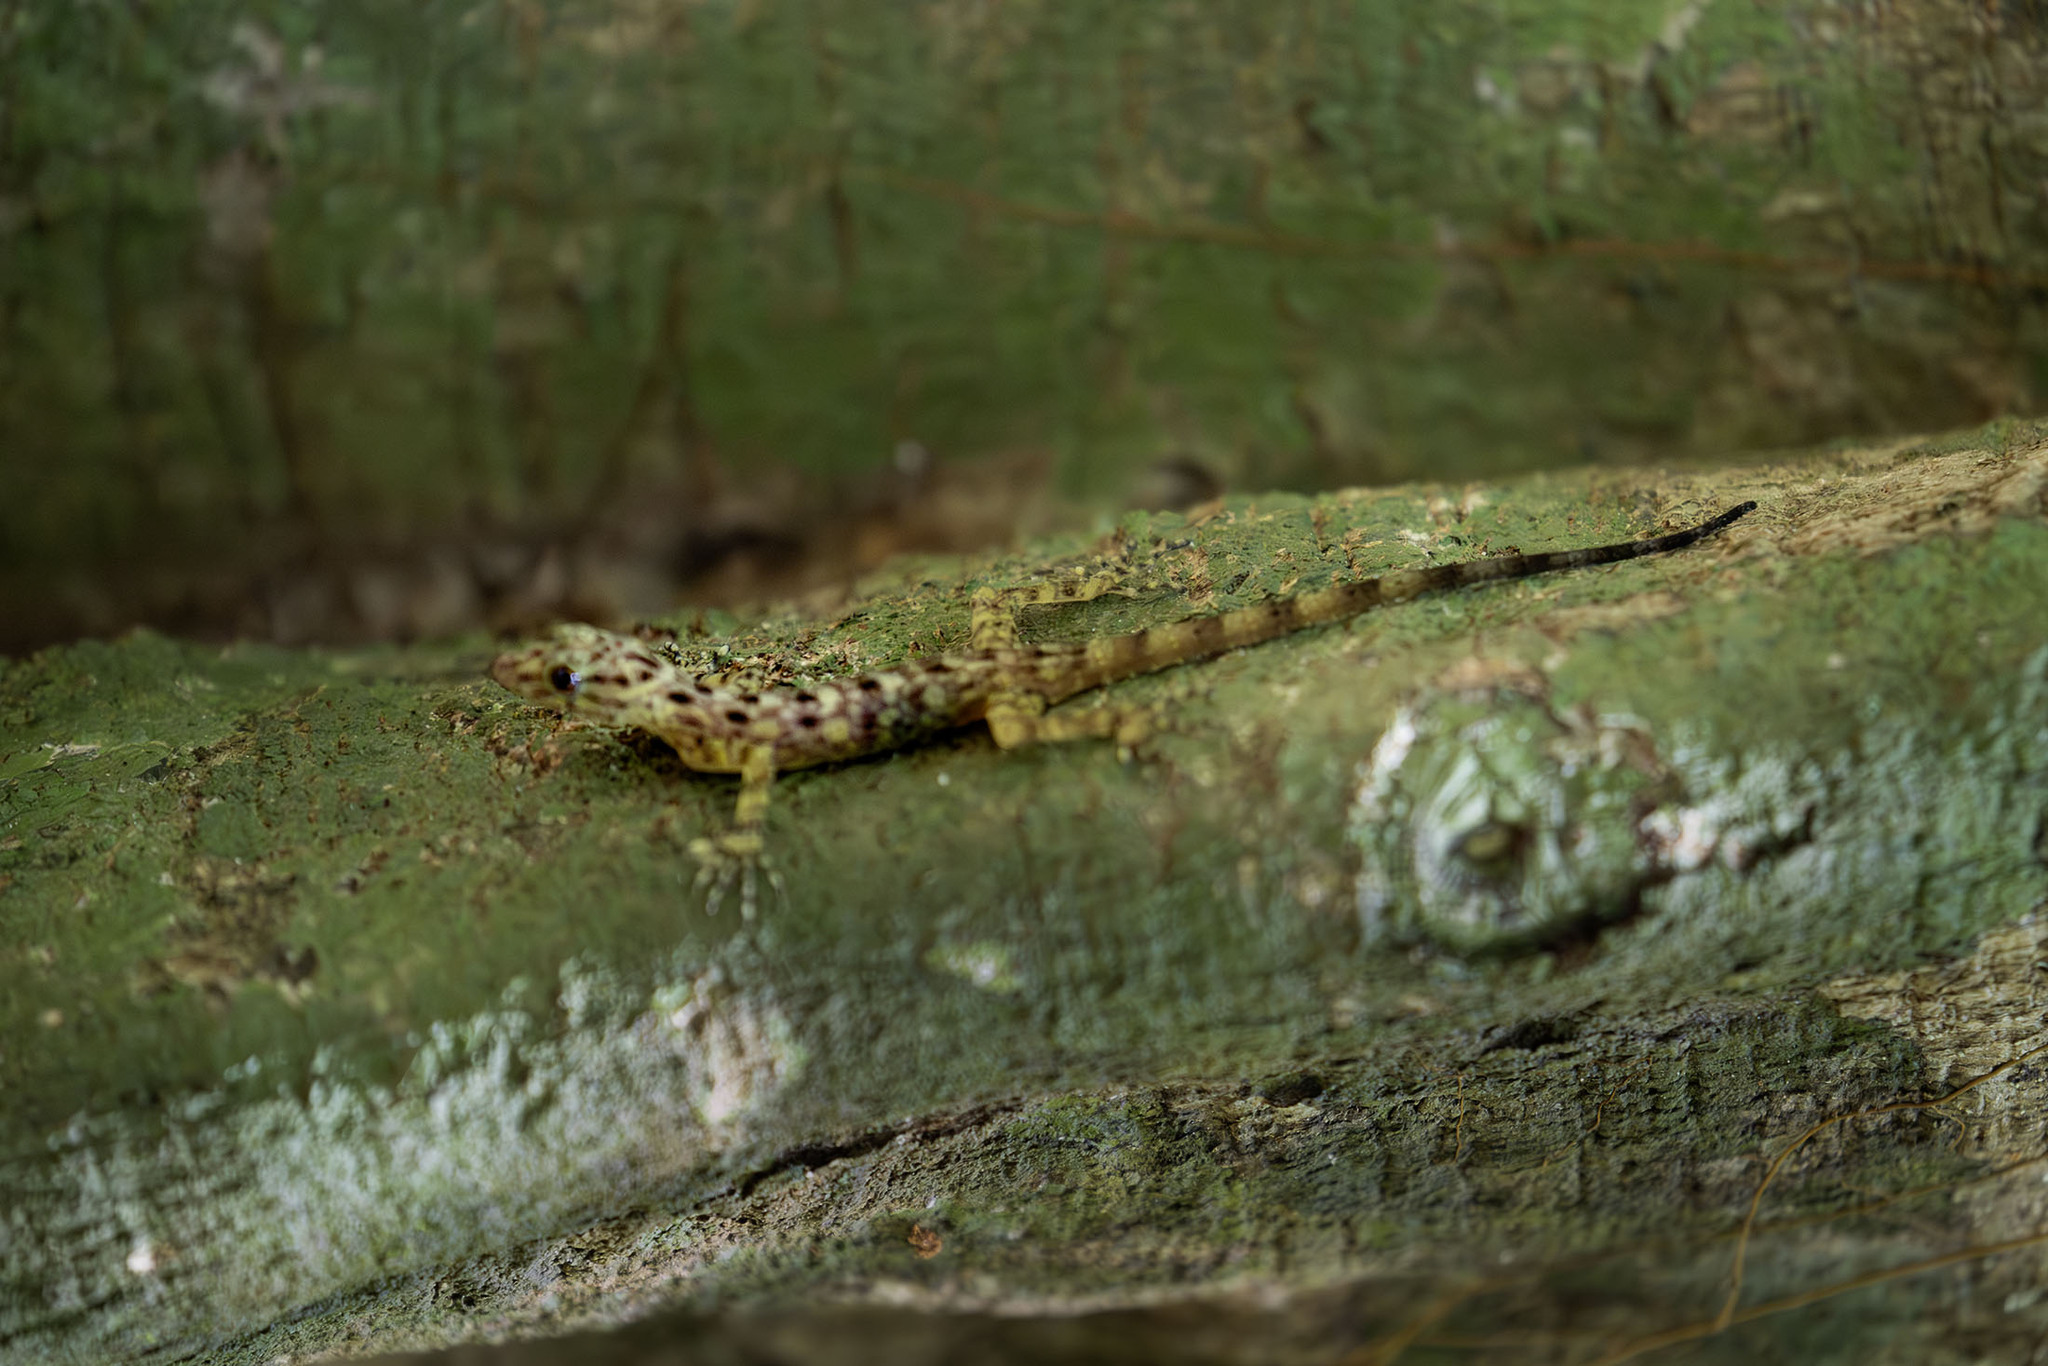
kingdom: Animalia
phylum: Chordata
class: Squamata
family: Gekkonidae
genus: Cnemaspis
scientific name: Cnemaspis peninsularis
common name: Peninsular rock gecko
